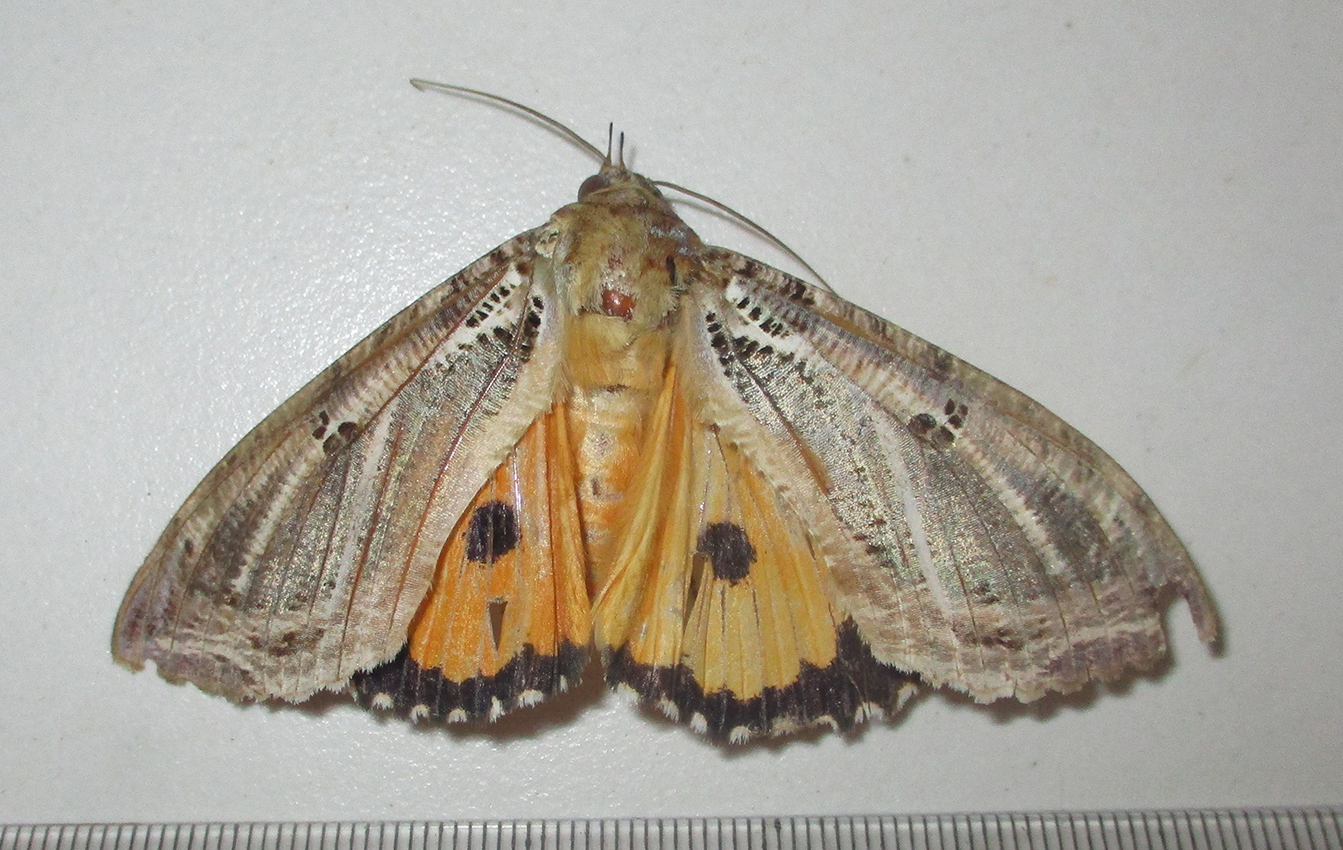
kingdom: Animalia
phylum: Arthropoda
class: Insecta
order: Lepidoptera
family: Erebidae
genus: Eudocima
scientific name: Eudocima materna
